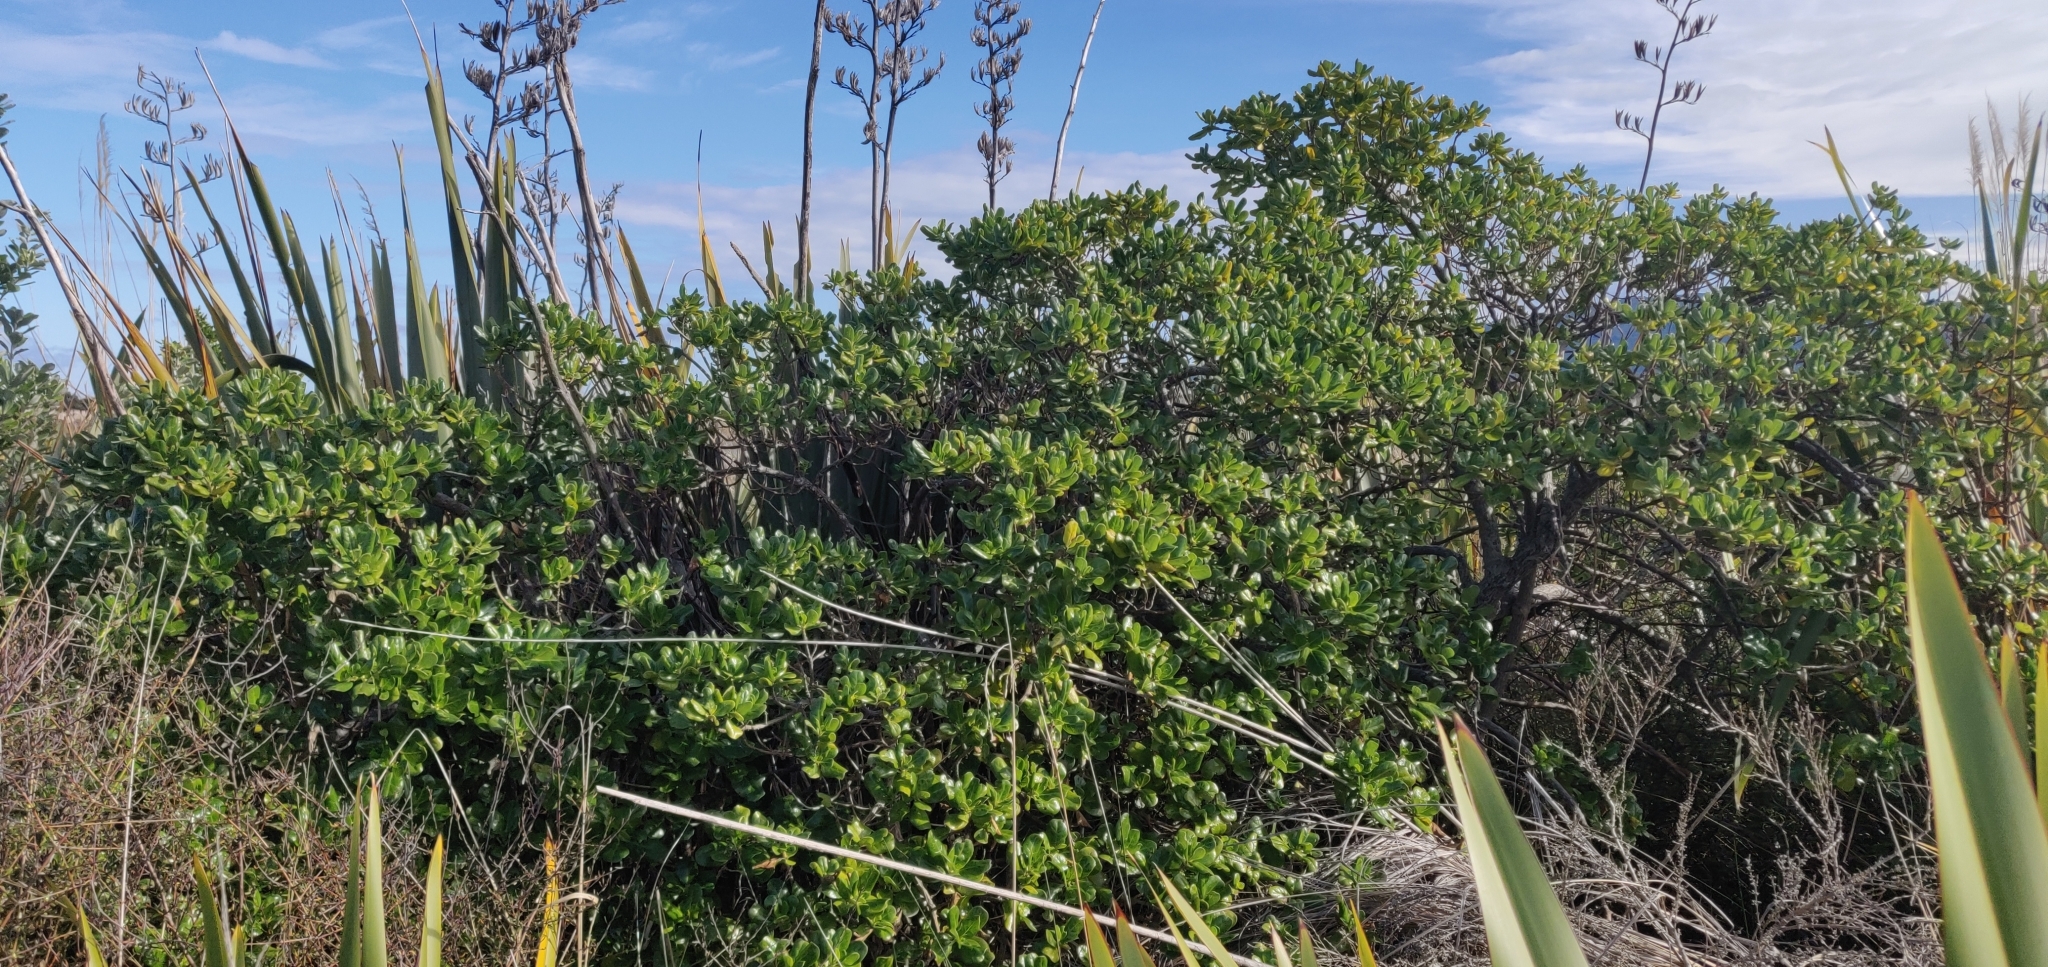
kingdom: Plantae
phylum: Tracheophyta
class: Magnoliopsida
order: Gentianales
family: Rubiaceae
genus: Coprosma
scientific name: Coprosma repens
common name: Tree bedstraw
